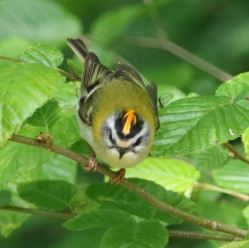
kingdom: Animalia
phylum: Chordata
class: Aves
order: Passeriformes
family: Regulidae
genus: Regulus
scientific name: Regulus ignicapilla
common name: Firecrest
